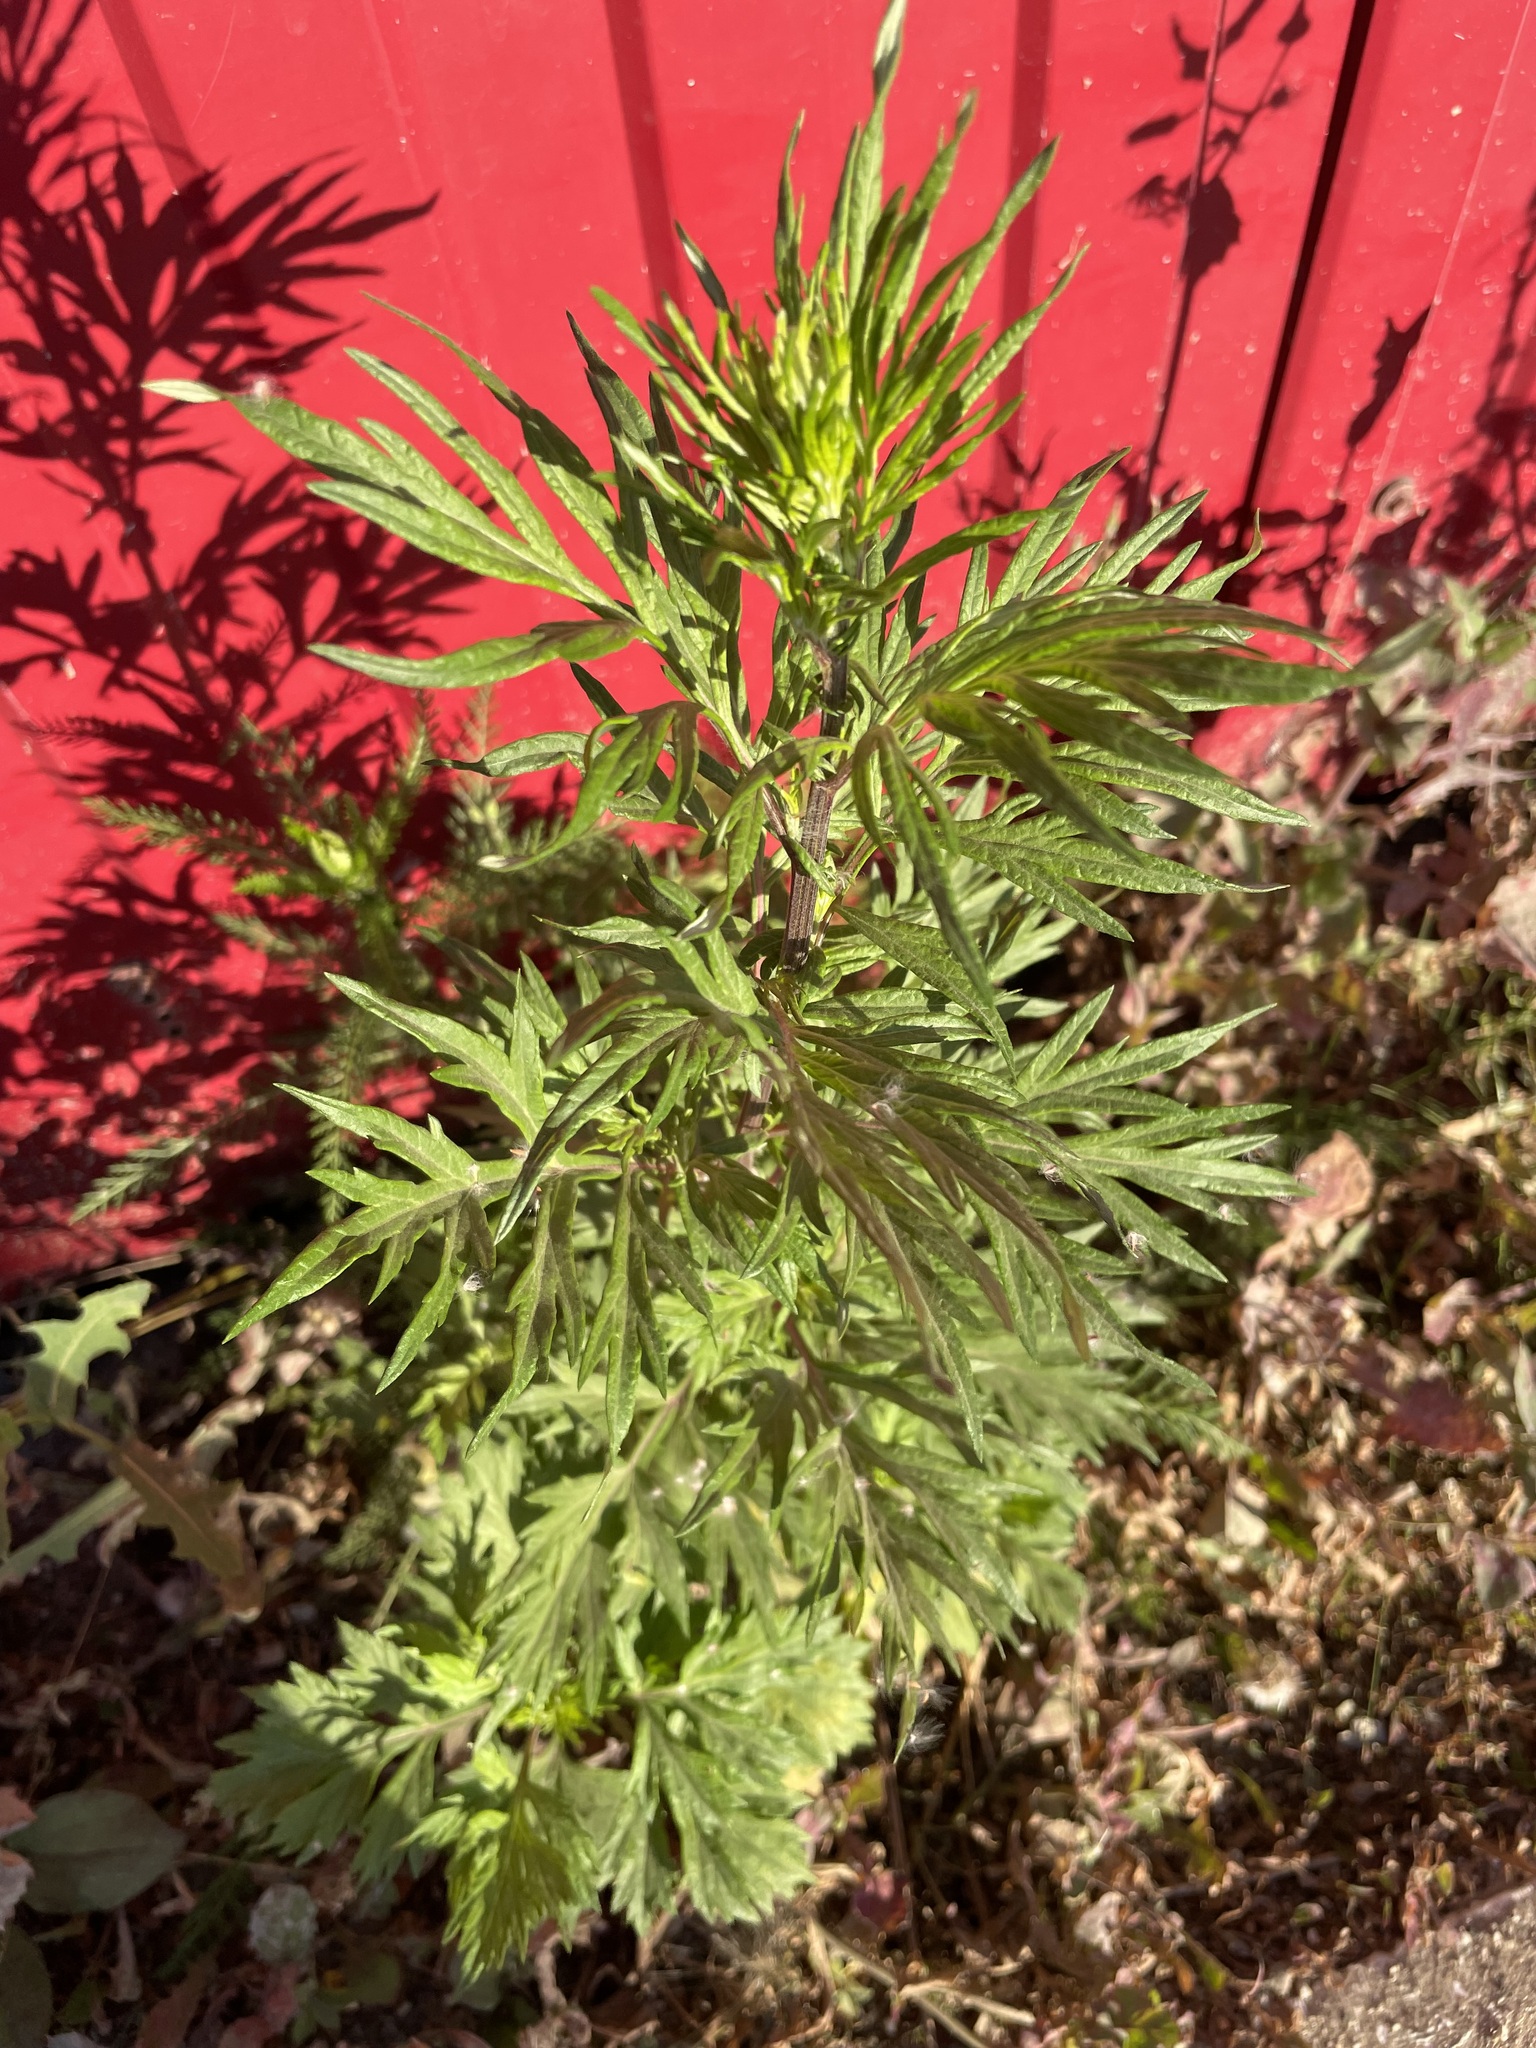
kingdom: Plantae
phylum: Tracheophyta
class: Magnoliopsida
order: Asterales
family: Asteraceae
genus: Artemisia
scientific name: Artemisia vulgaris
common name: Mugwort
